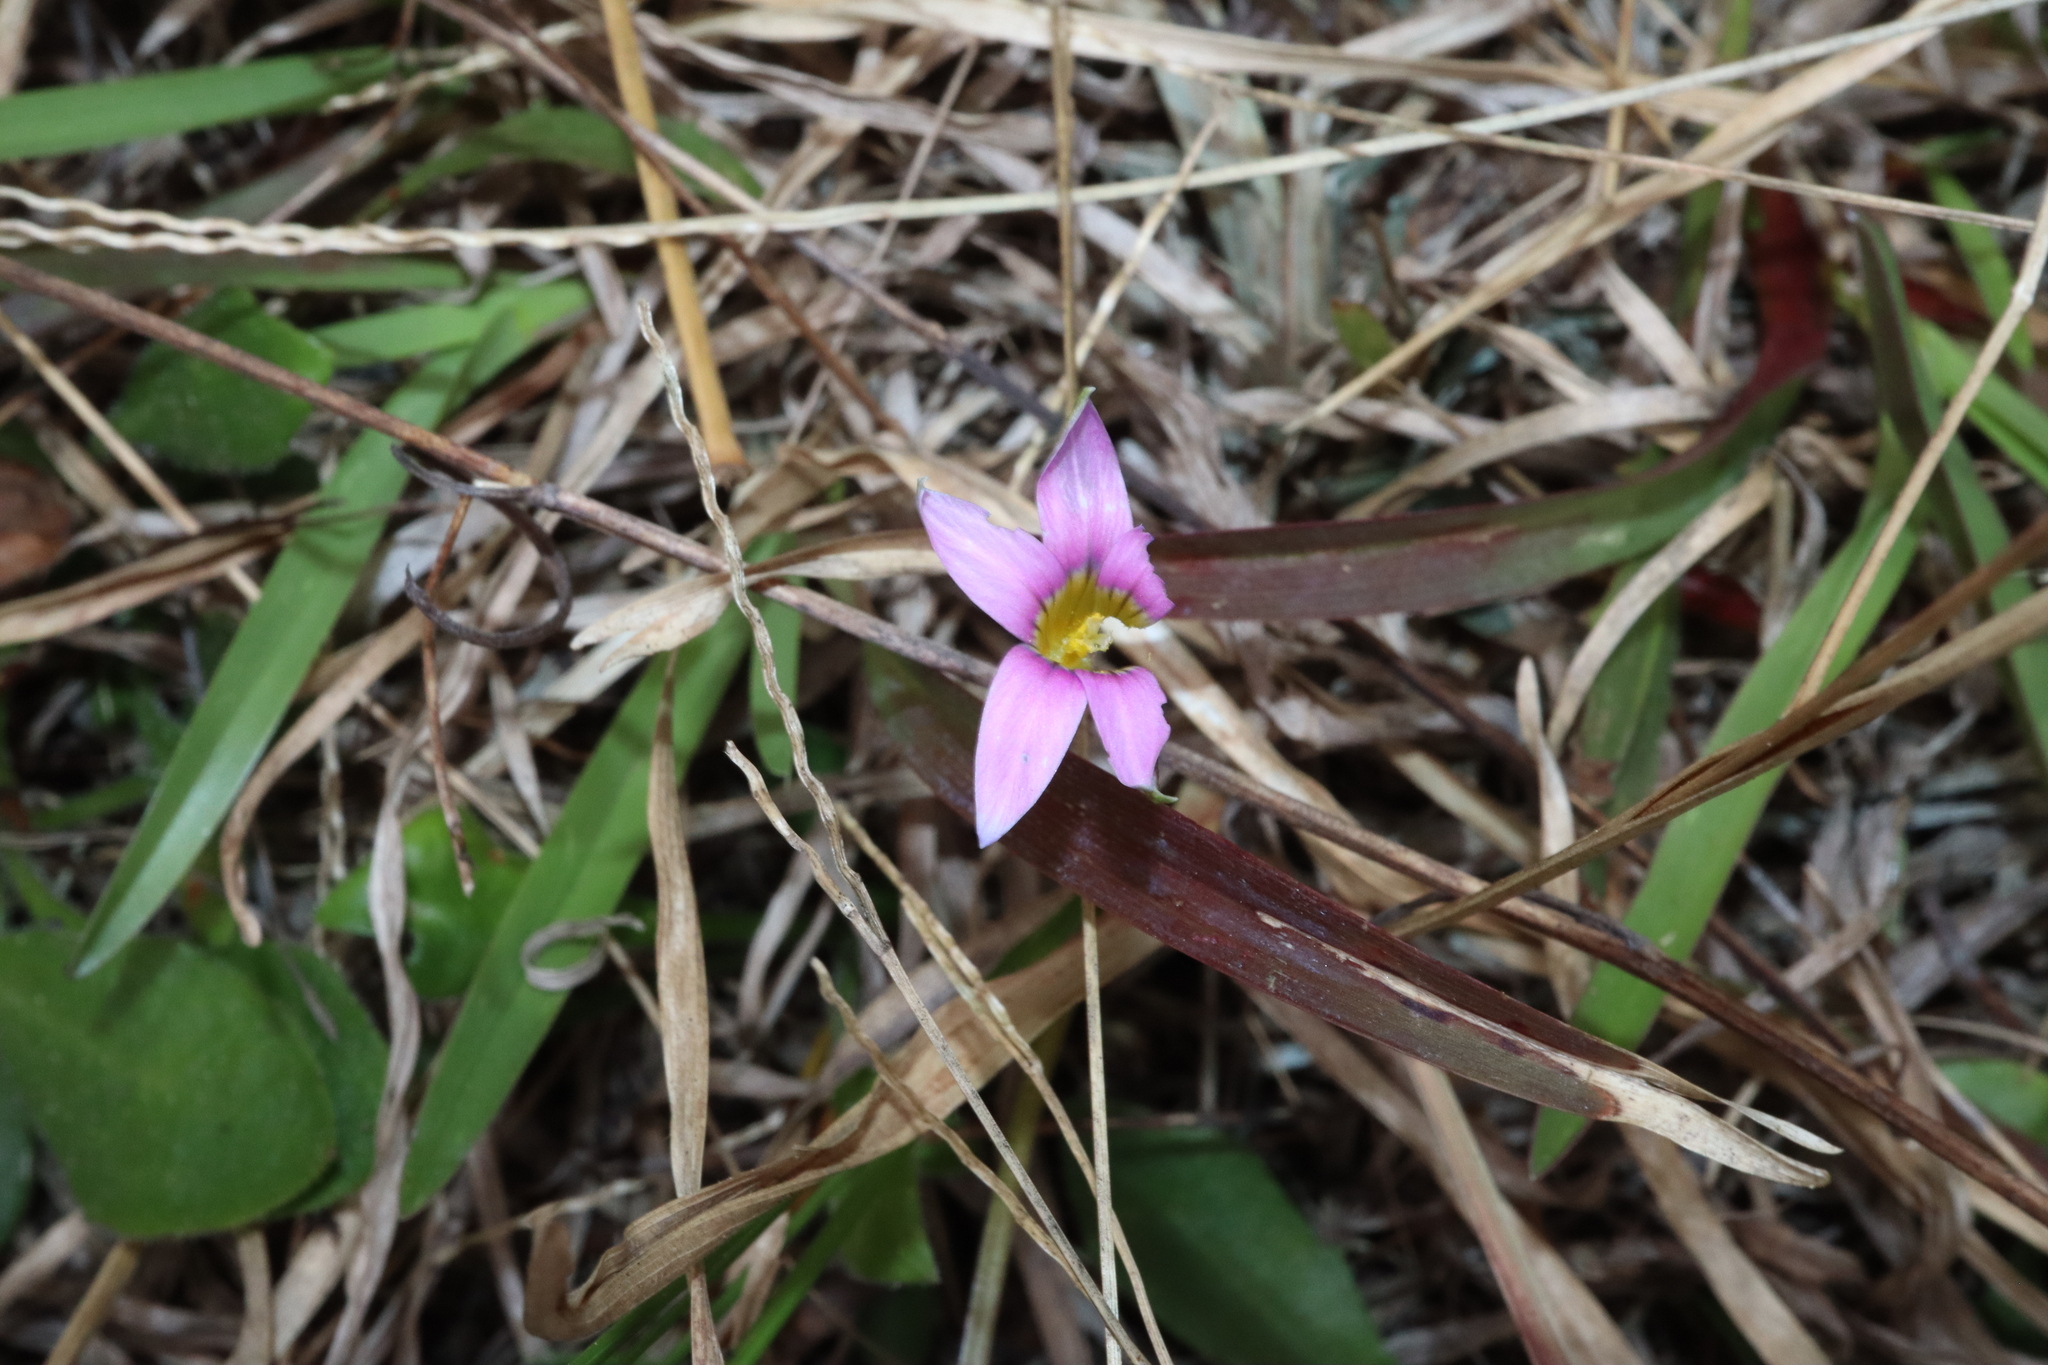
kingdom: Plantae
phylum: Tracheophyta
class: Liliopsida
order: Asparagales
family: Iridaceae
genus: Romulea
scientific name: Romulea rosea
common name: Oniongrass
